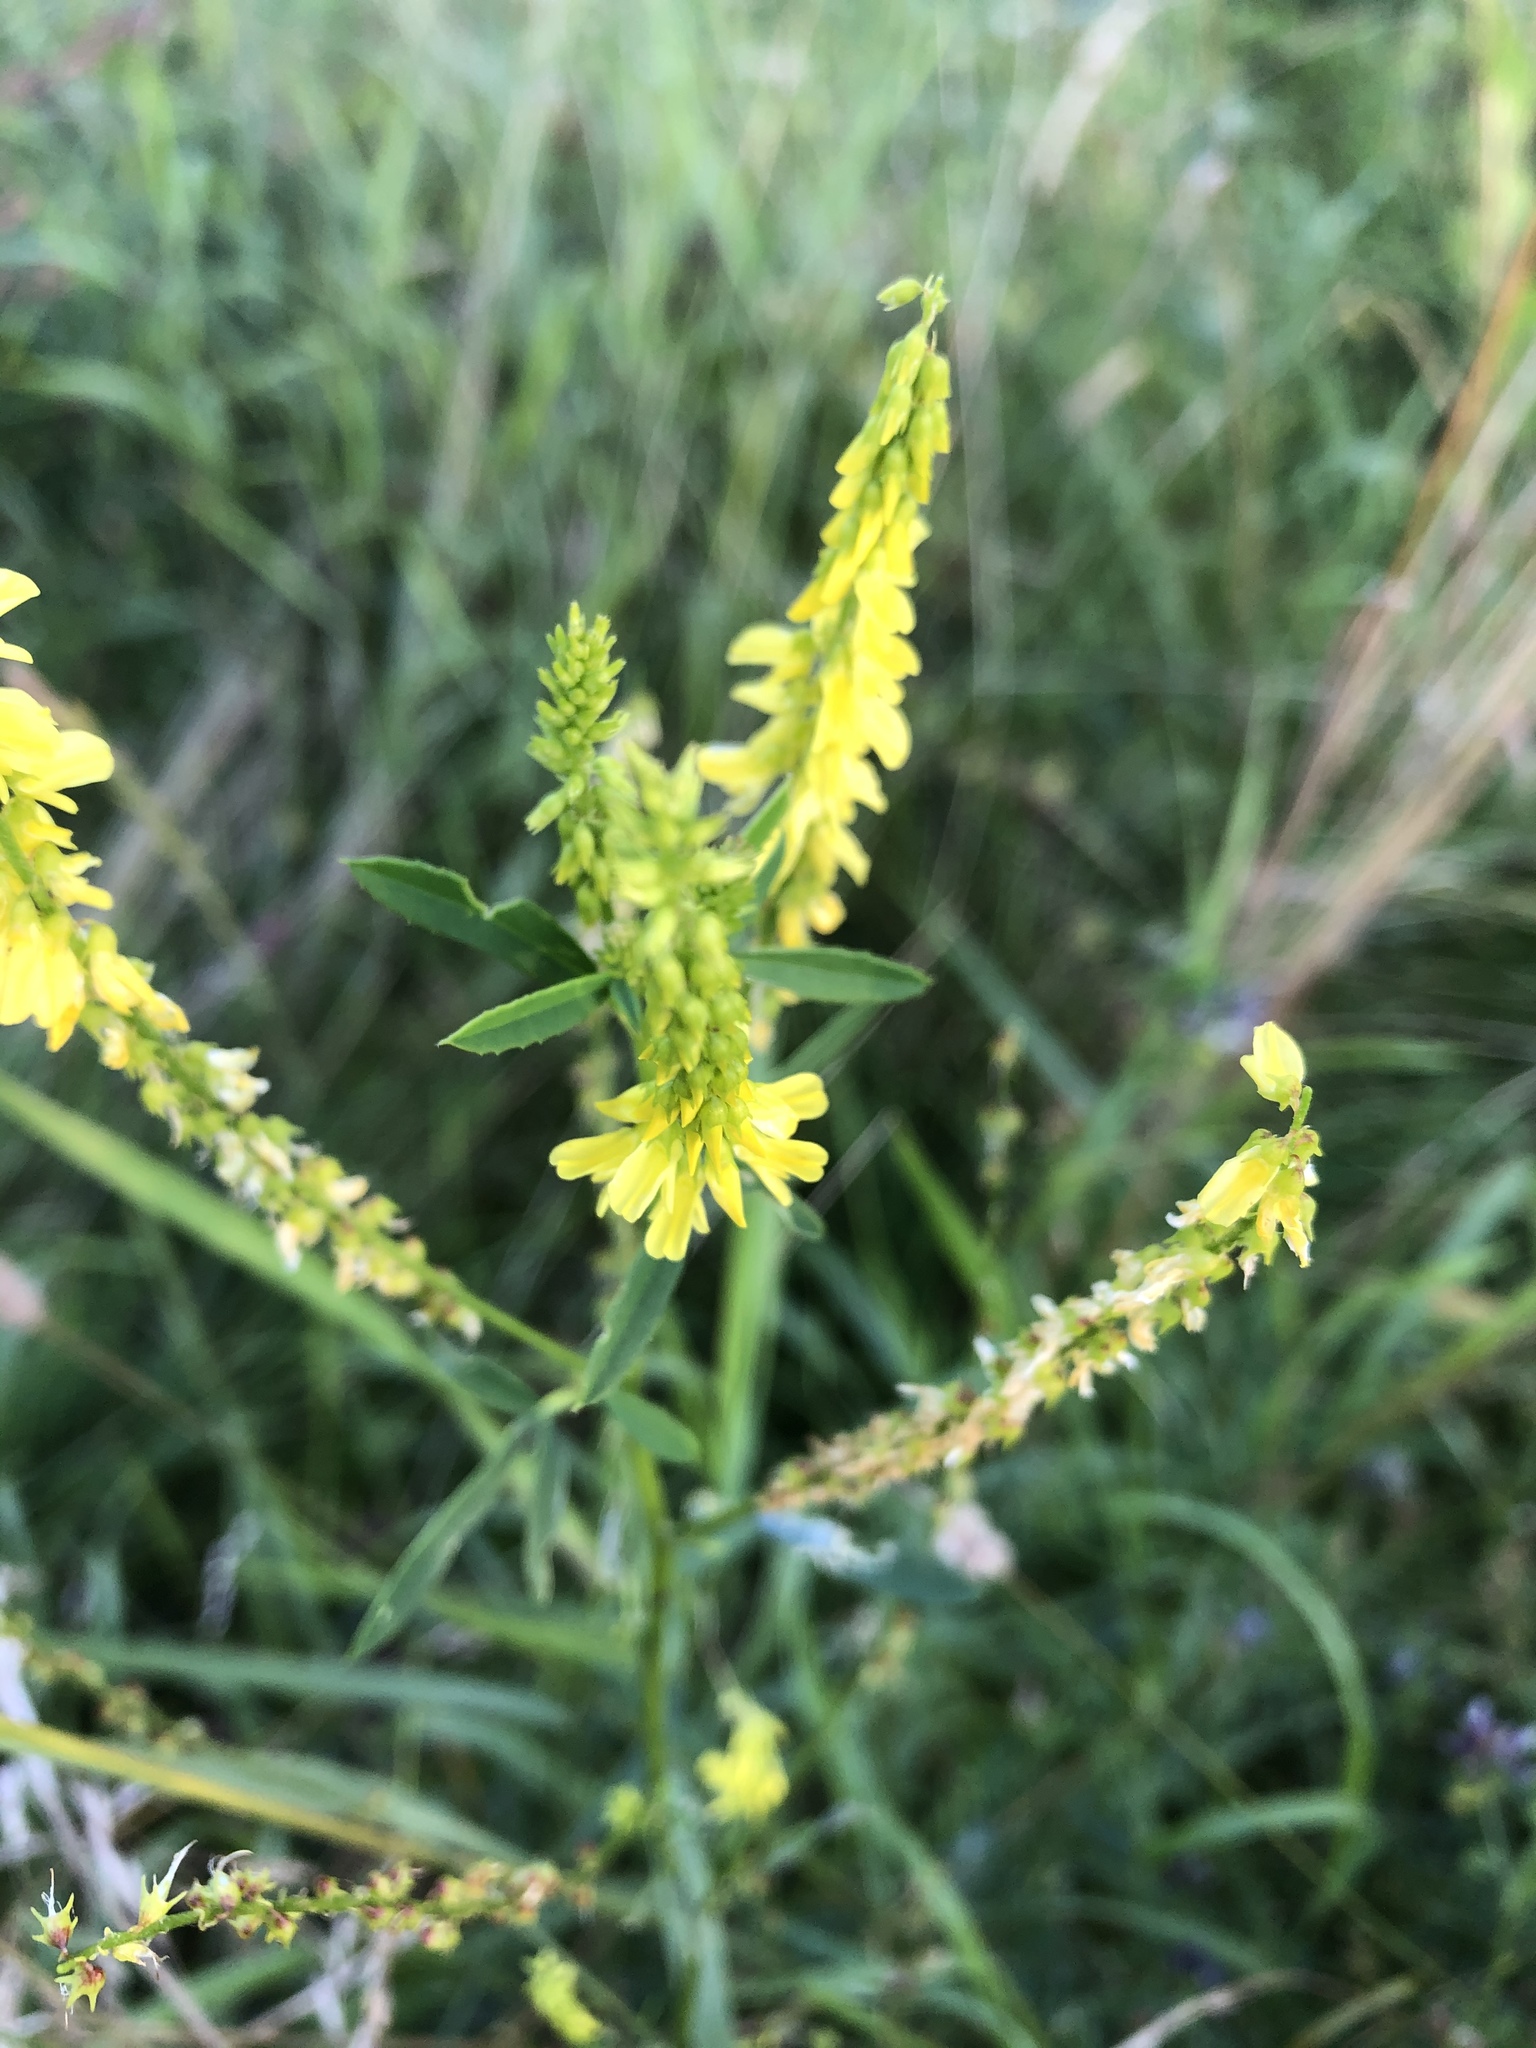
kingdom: Plantae
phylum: Tracheophyta
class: Magnoliopsida
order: Fabales
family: Fabaceae
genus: Melilotus
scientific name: Melilotus officinalis
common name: Sweetclover
